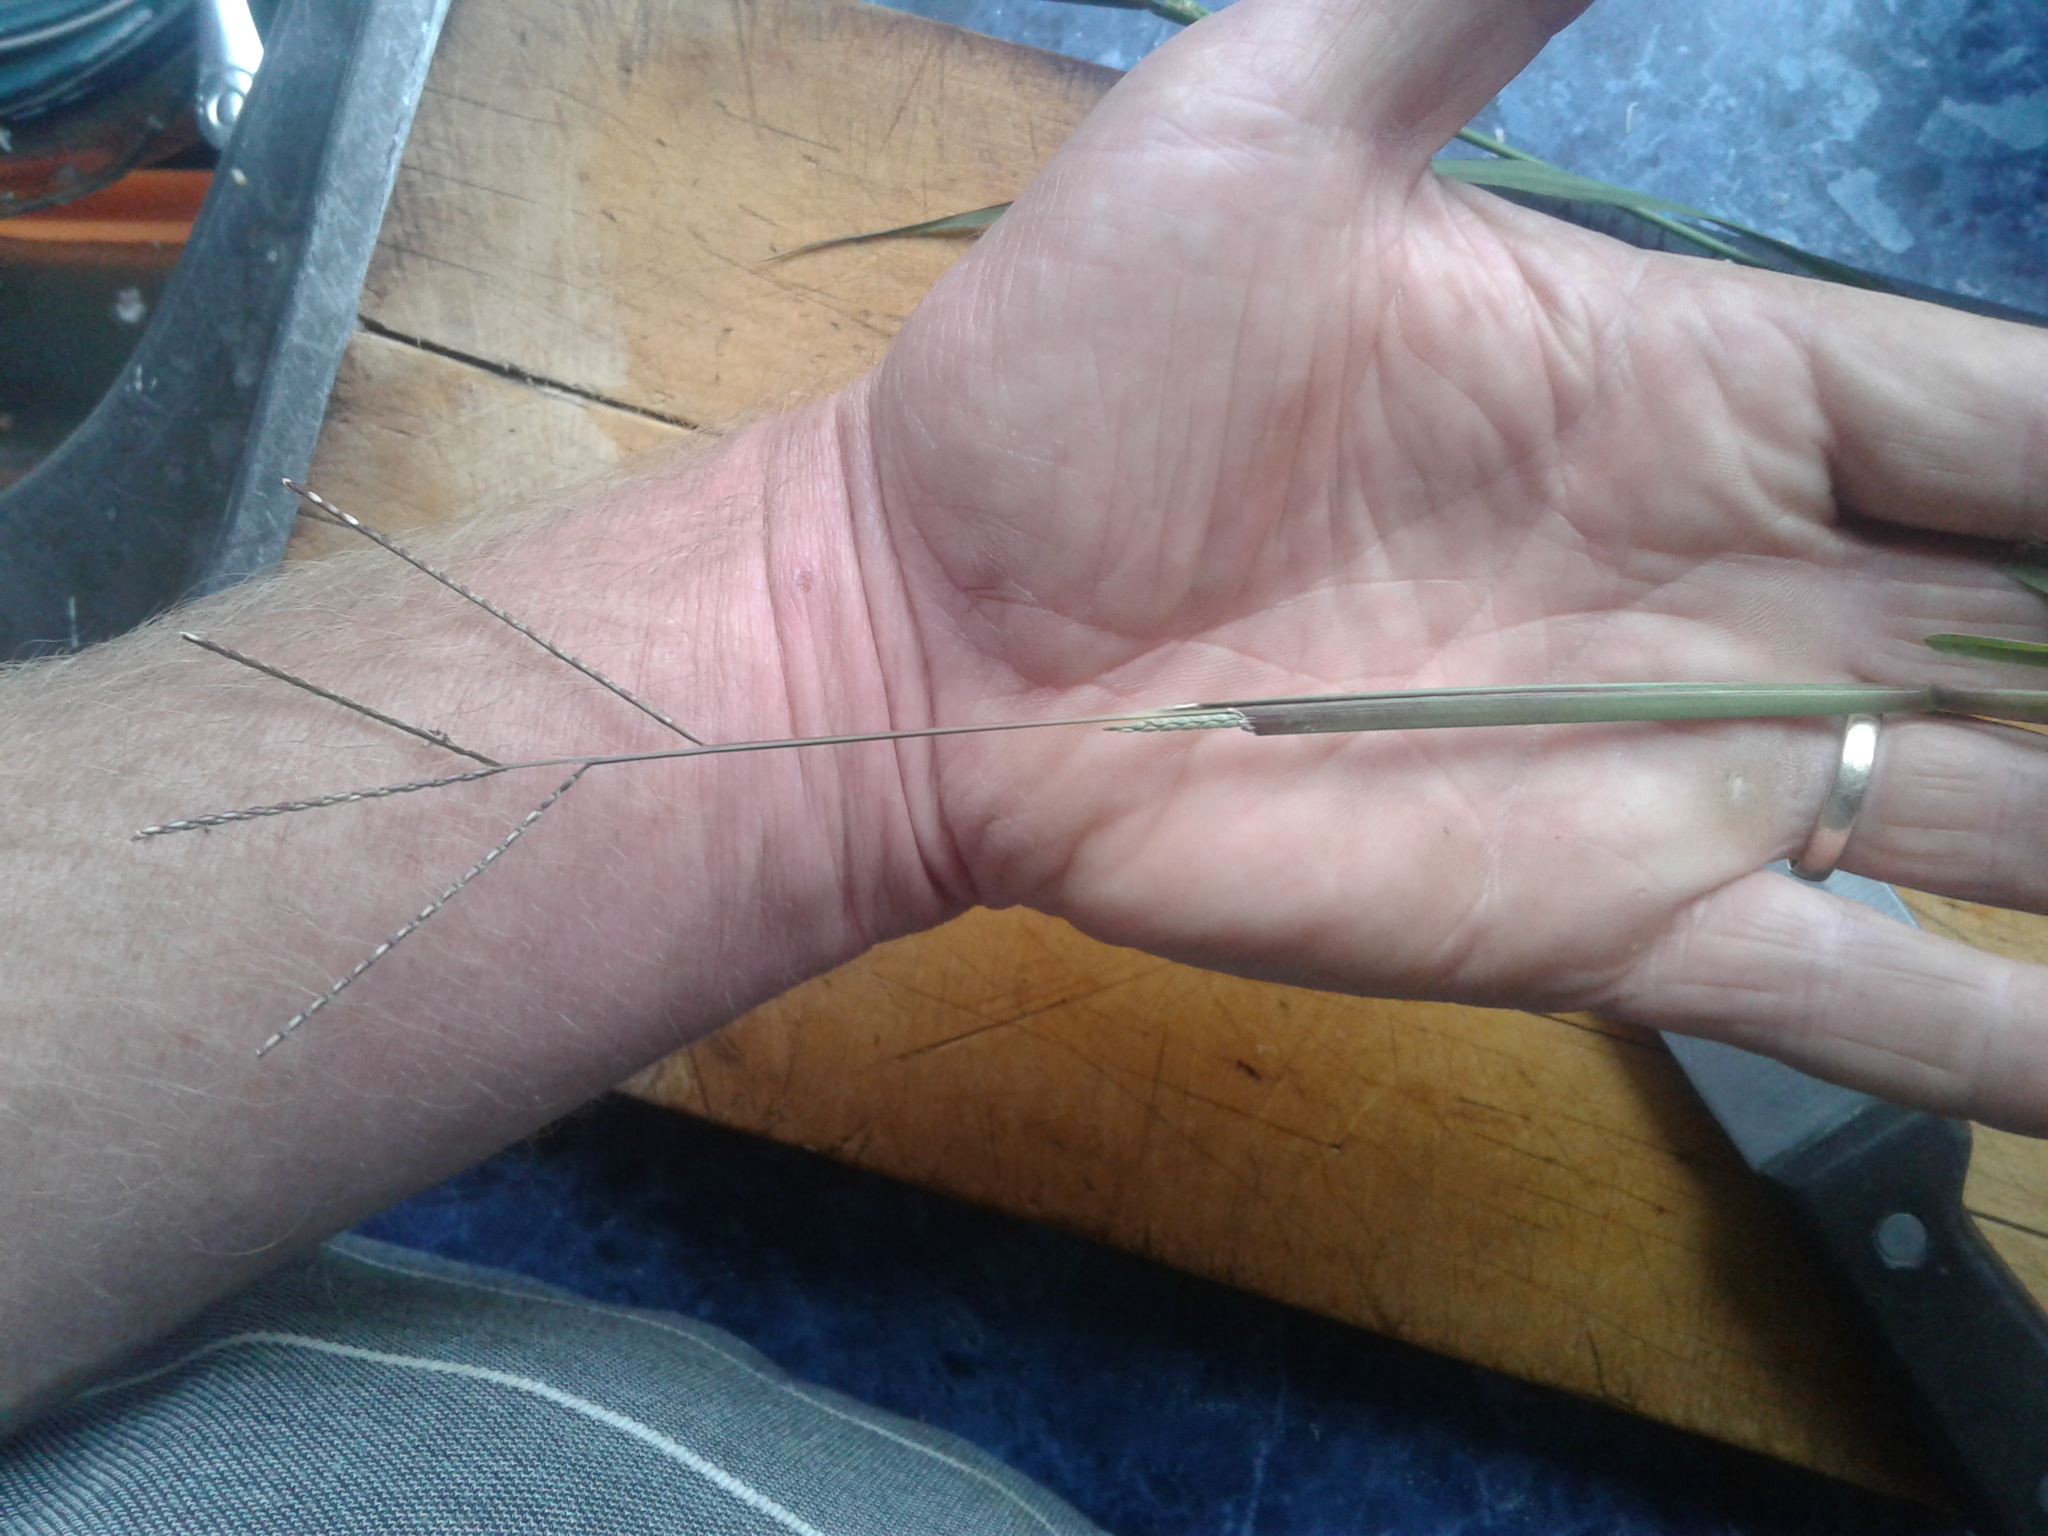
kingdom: Plantae
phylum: Tracheophyta
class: Liliopsida
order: Poales
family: Poaceae
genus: Axonopus
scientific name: Axonopus fissifolius
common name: Common carpetgrass
